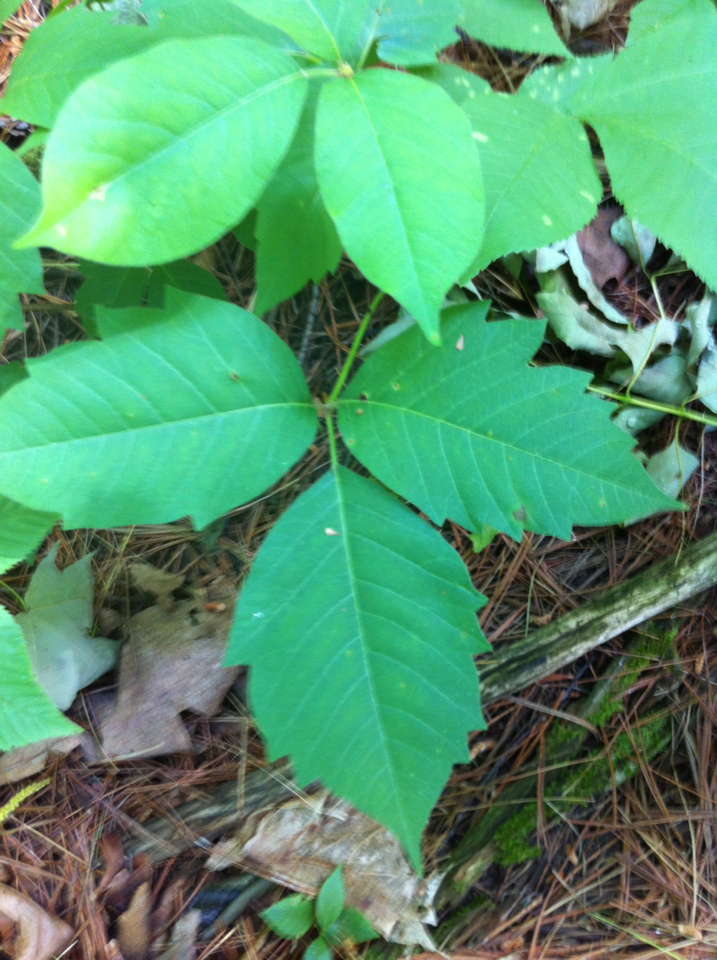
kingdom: Plantae
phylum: Tracheophyta
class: Magnoliopsida
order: Sapindales
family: Anacardiaceae
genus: Toxicodendron
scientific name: Toxicodendron radicans
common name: Poison ivy
